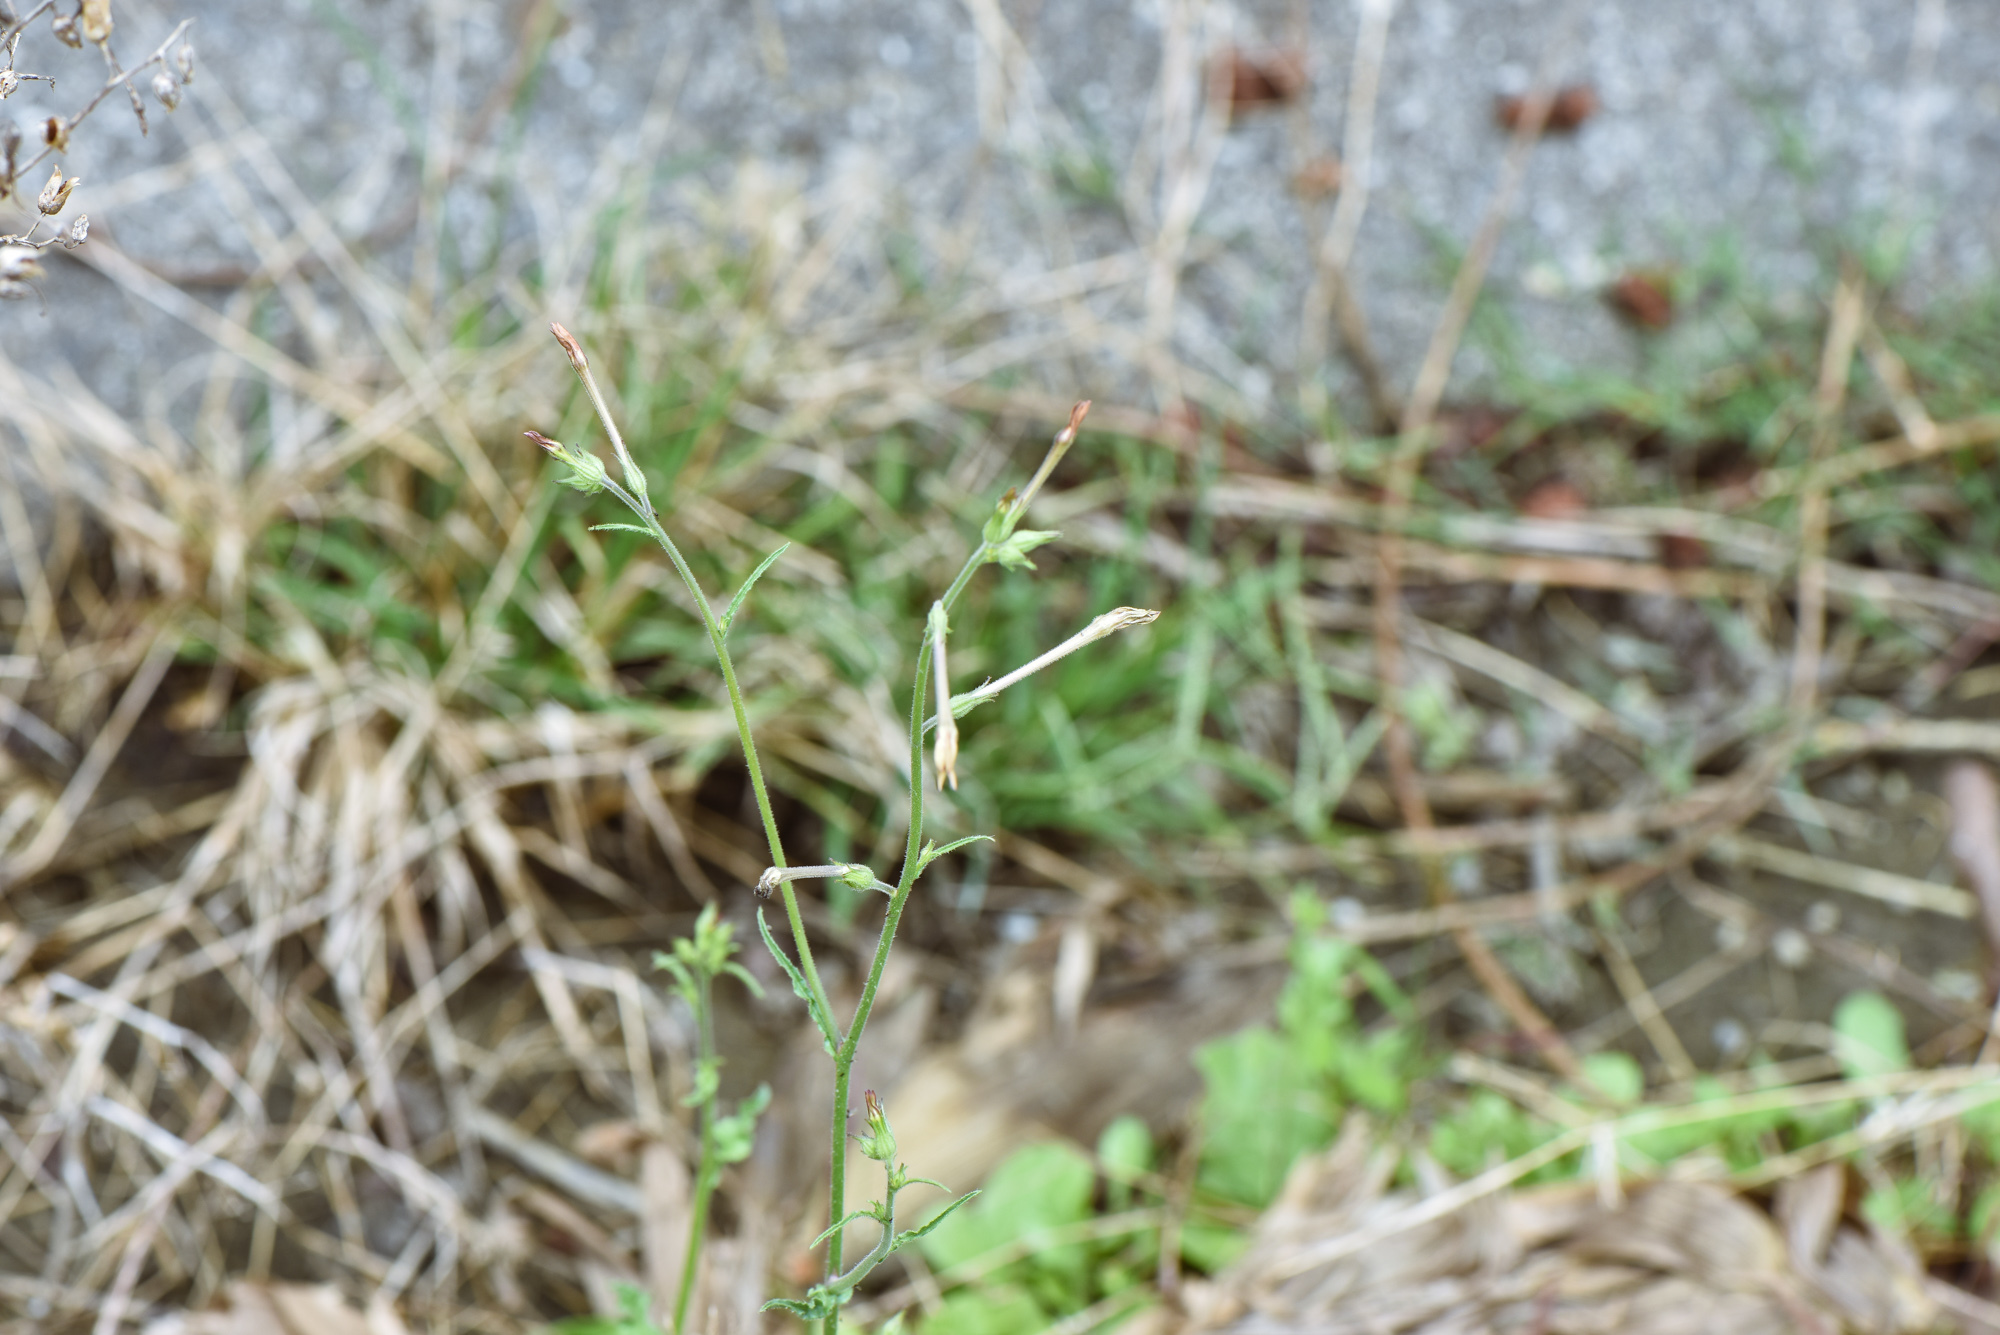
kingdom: Plantae
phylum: Tracheophyta
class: Magnoliopsida
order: Solanales
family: Solanaceae
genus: Nicotiana
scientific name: Nicotiana plumbaginifolia
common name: Tex-mex tobacco
